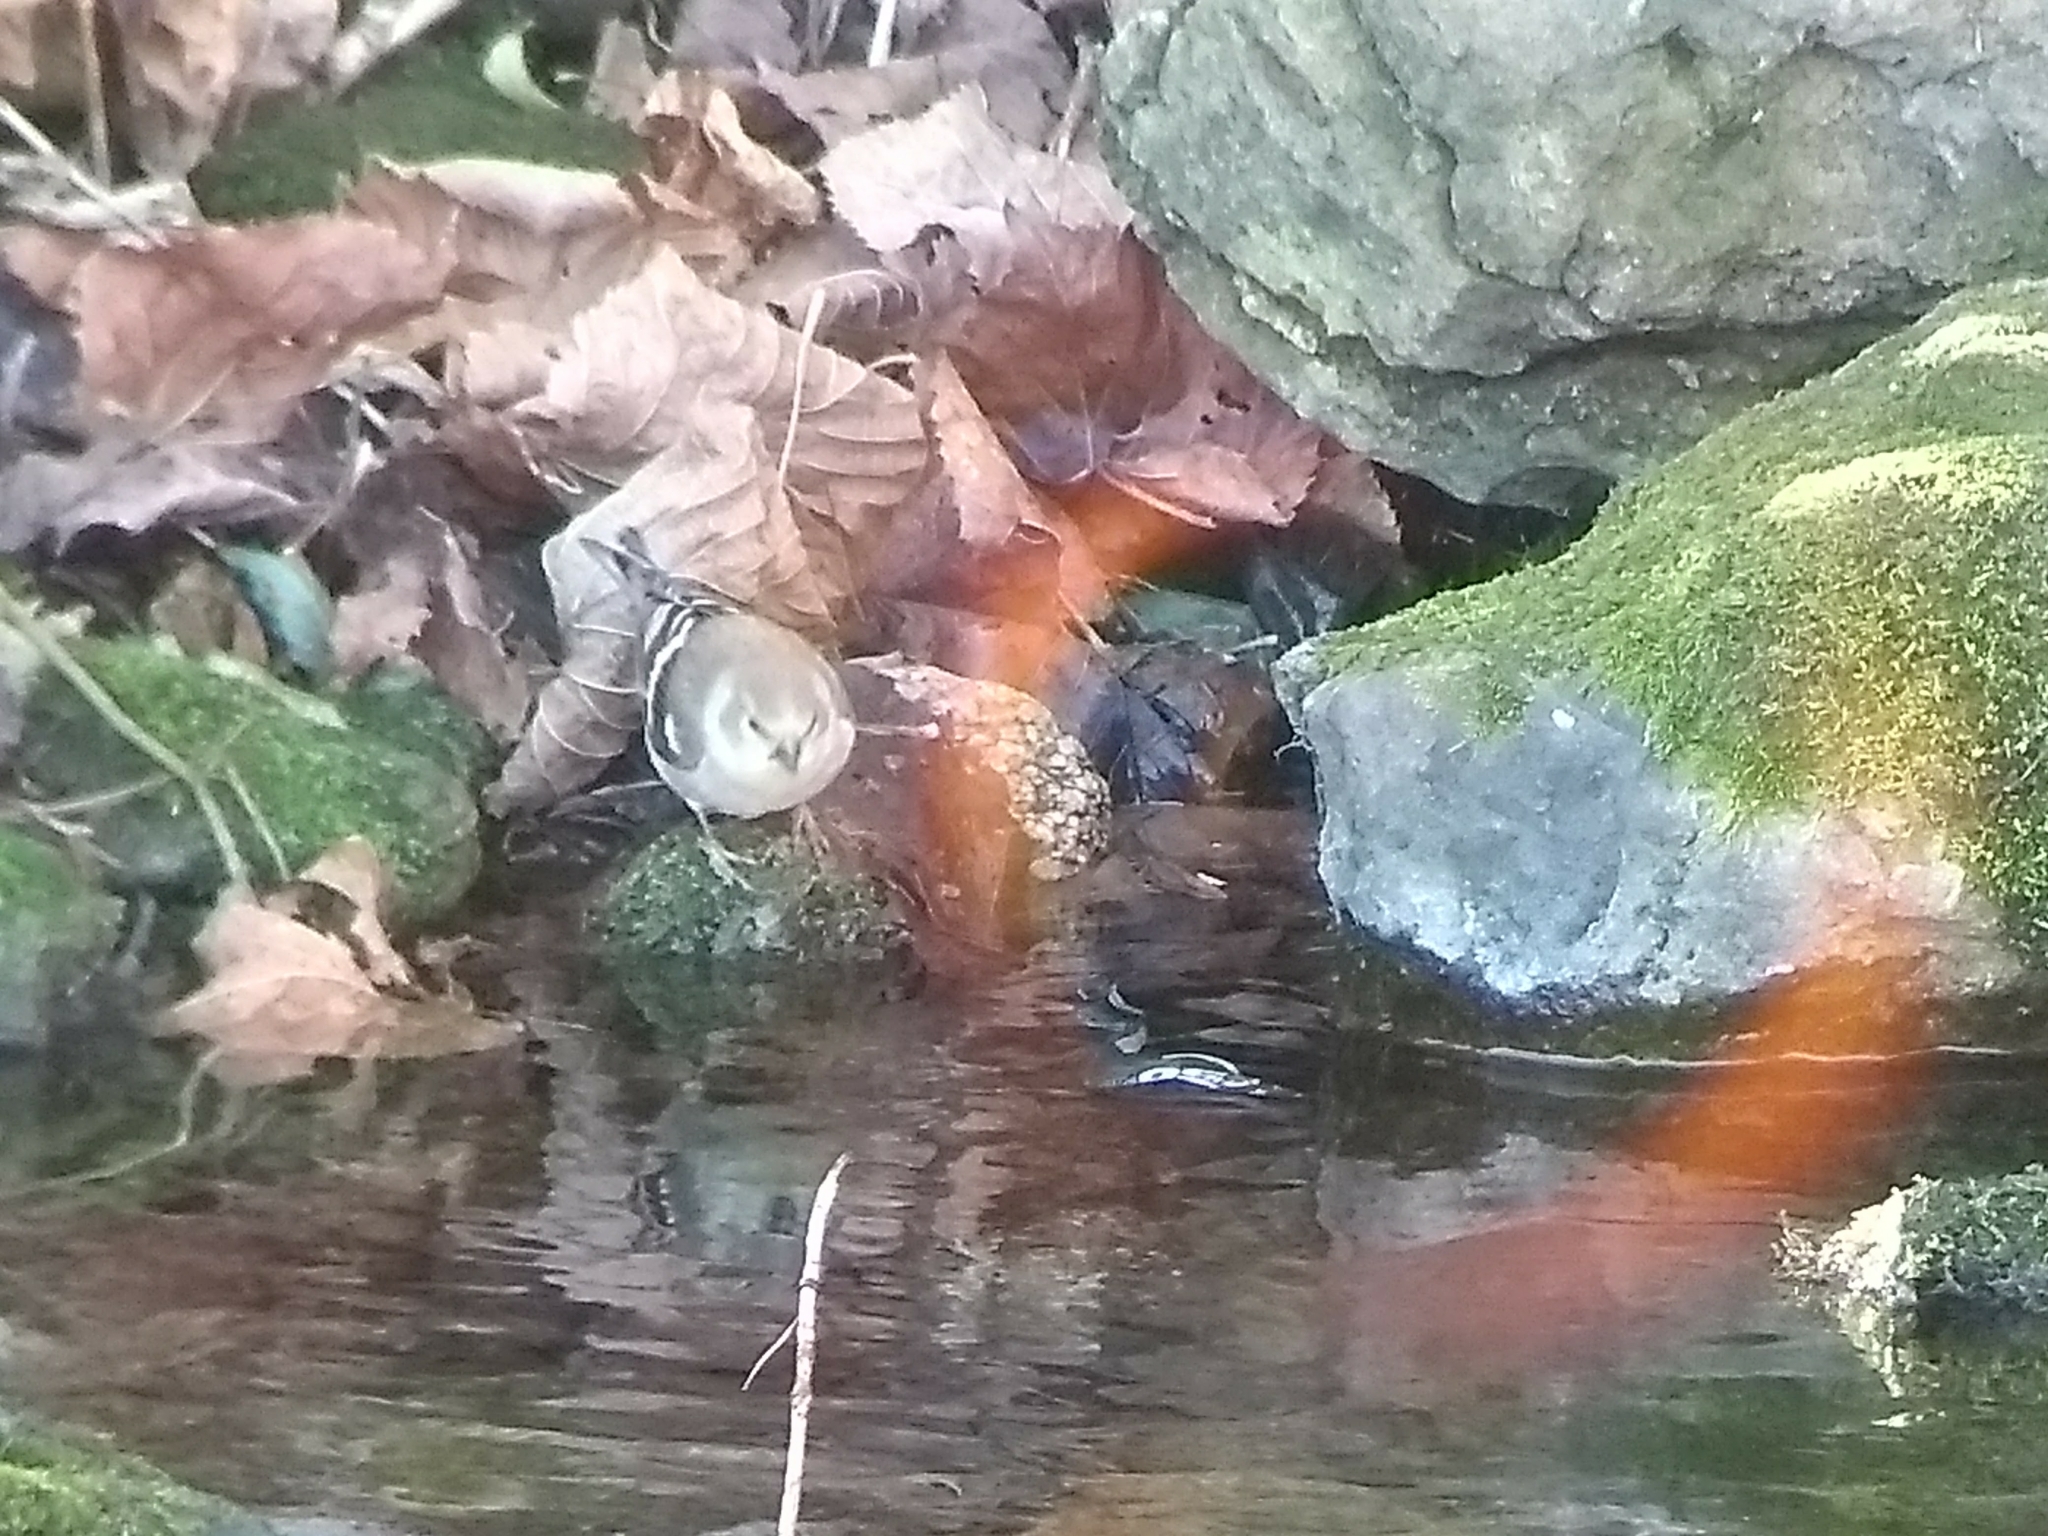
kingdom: Animalia
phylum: Chordata
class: Aves
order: Passeriformes
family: Fringillidae
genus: Spinus
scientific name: Spinus tristis
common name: American goldfinch
